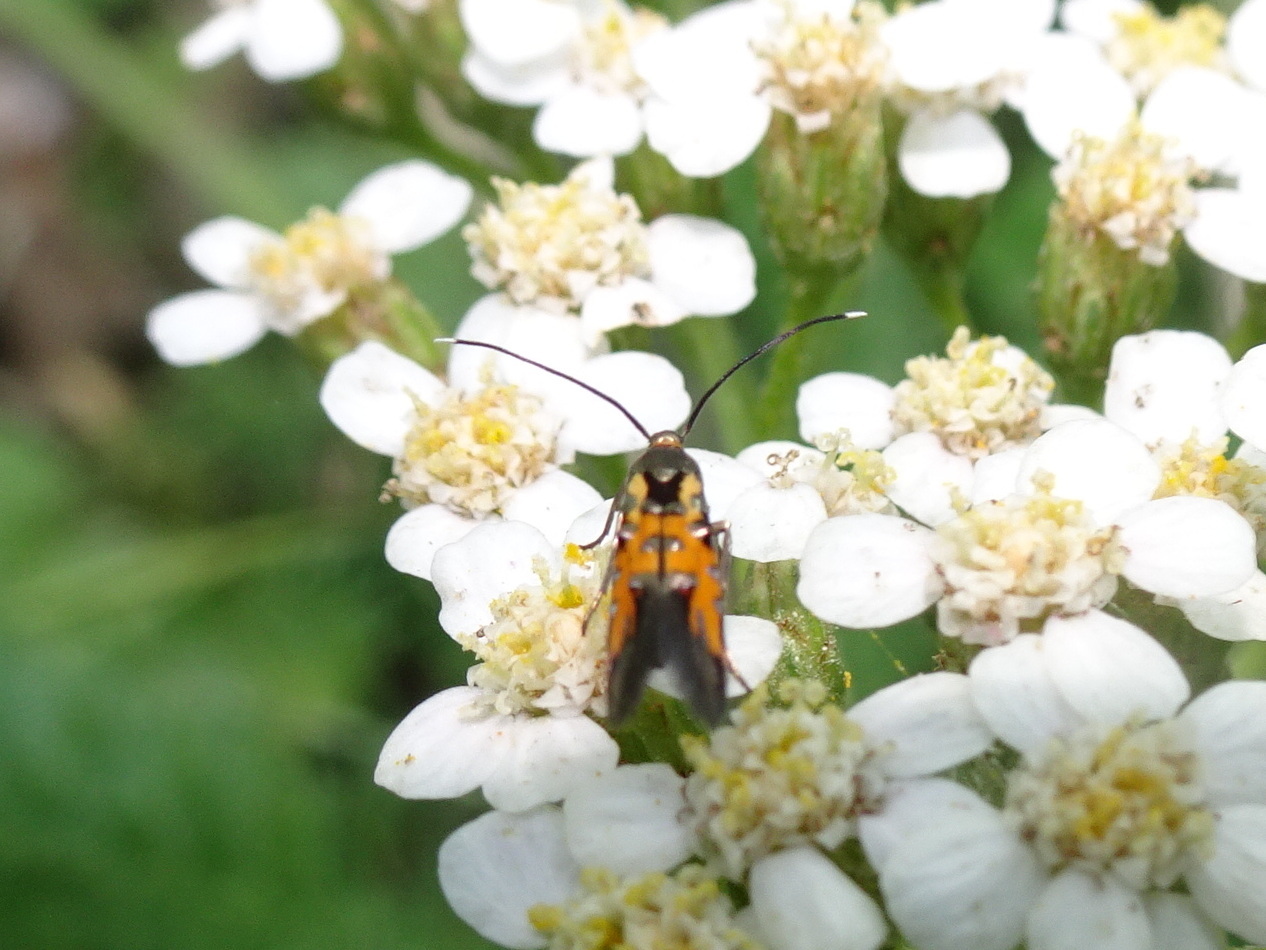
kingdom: Animalia
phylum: Arthropoda
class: Insecta
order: Lepidoptera
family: Heliodinidae
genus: Neoheliodines
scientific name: Neoheliodines nyctaginella
